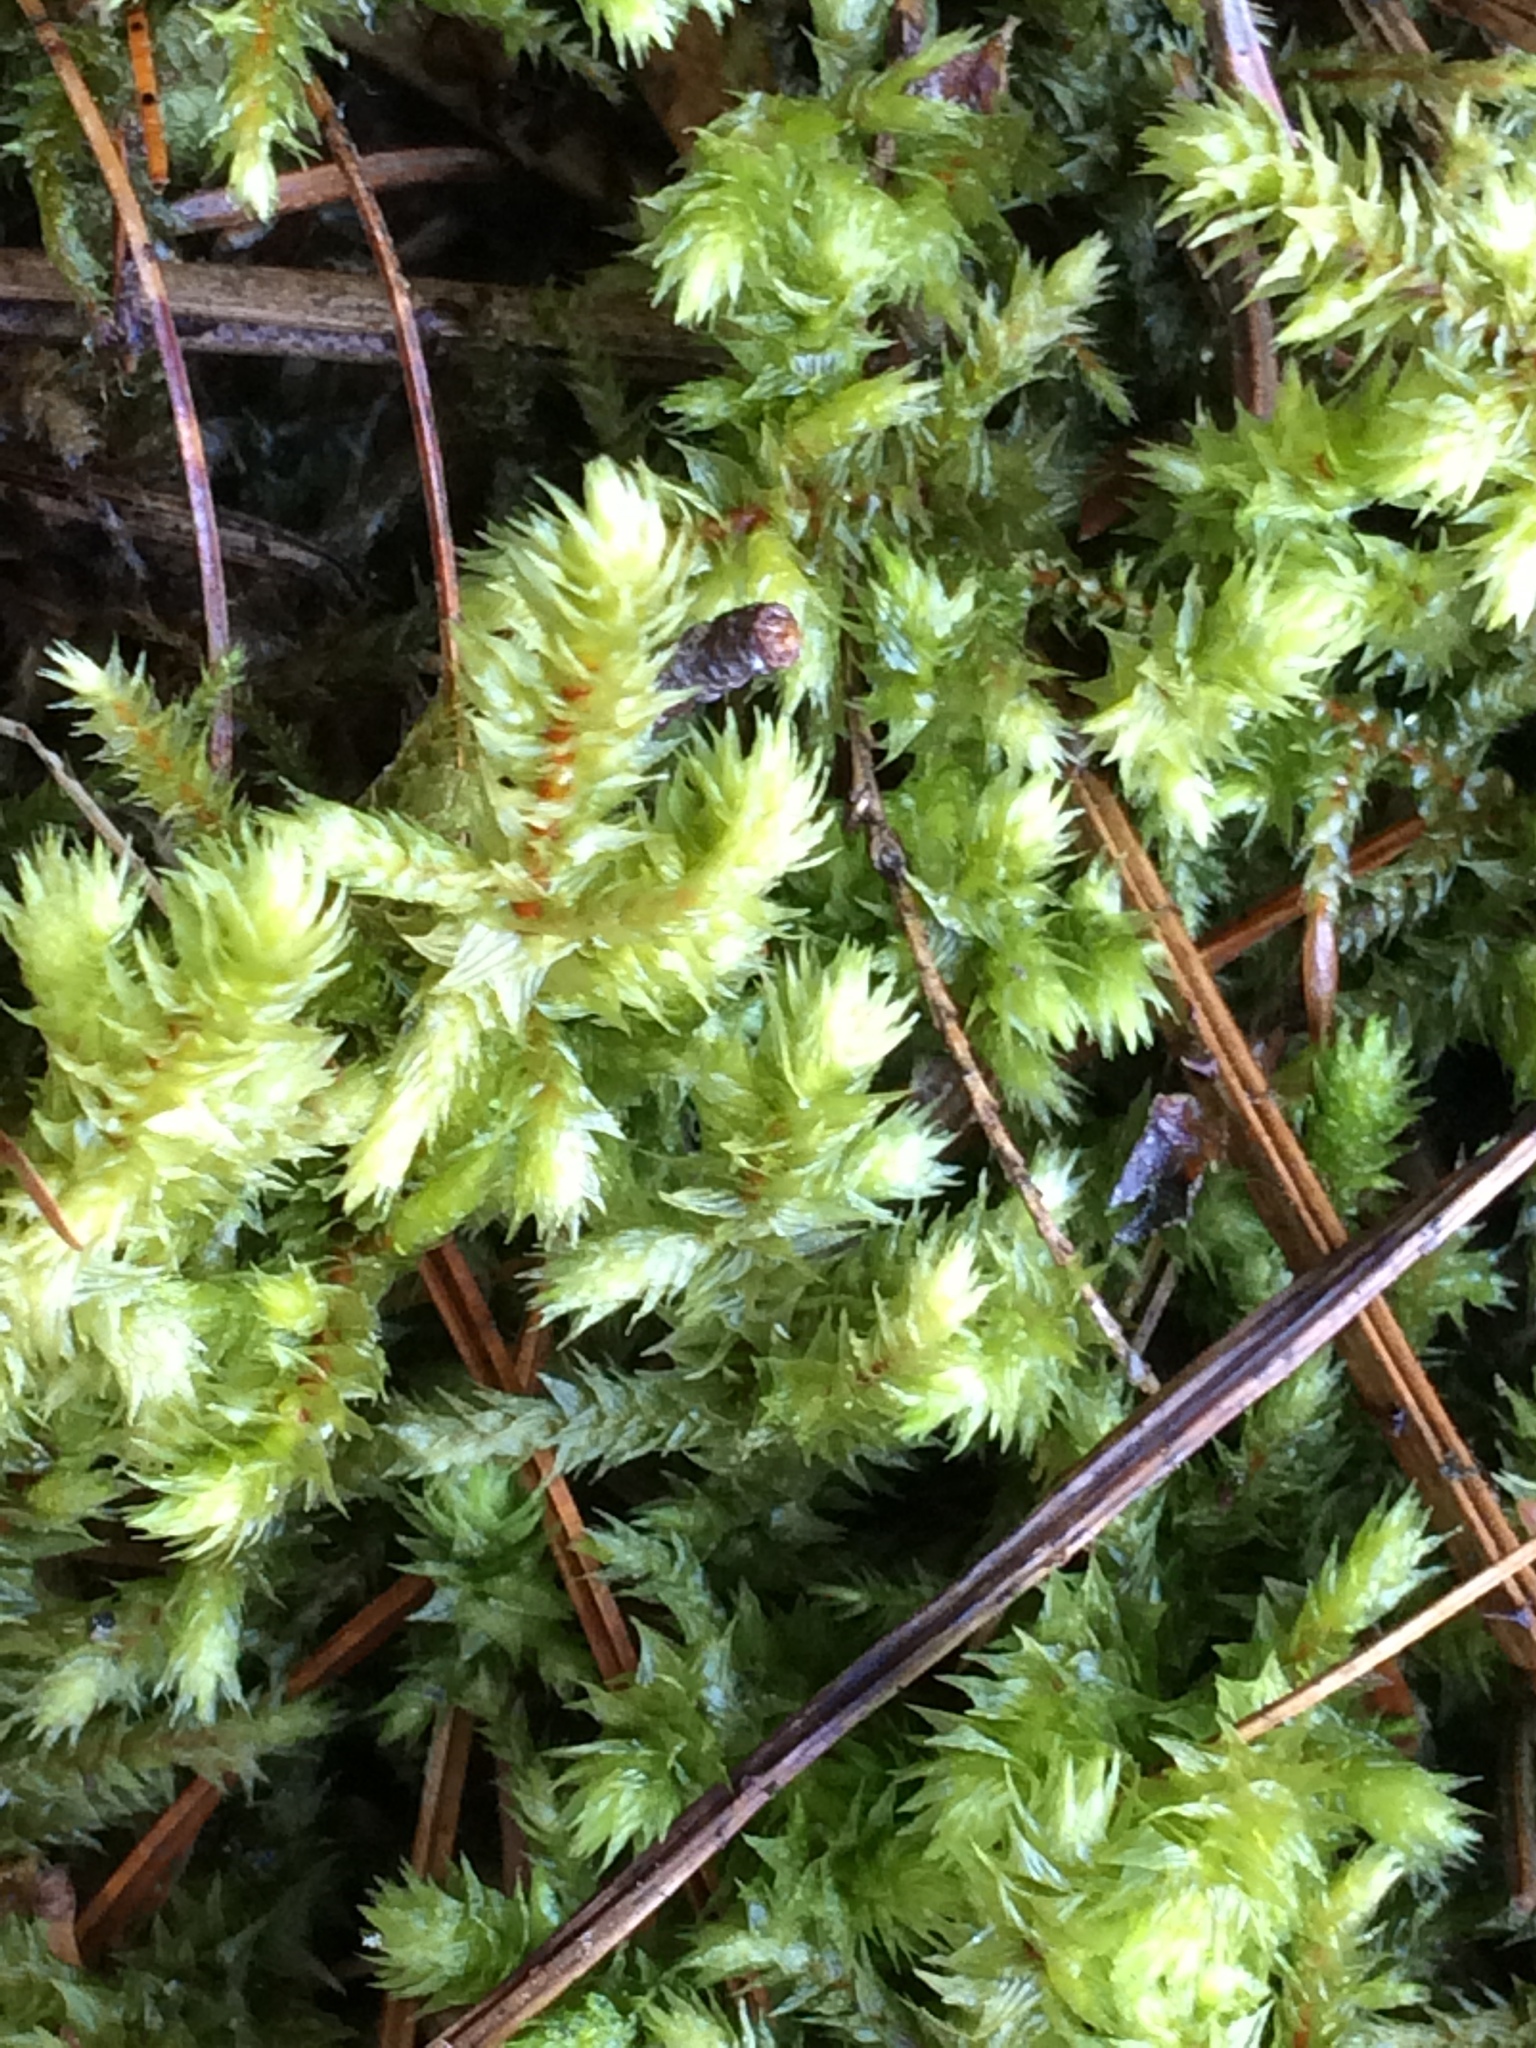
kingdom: Plantae
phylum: Bryophyta
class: Bryopsida
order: Hypnales
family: Hylocomiaceae
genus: Hylocomiadelphus
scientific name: Hylocomiadelphus triquetrus
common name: Rough goose neck moss
